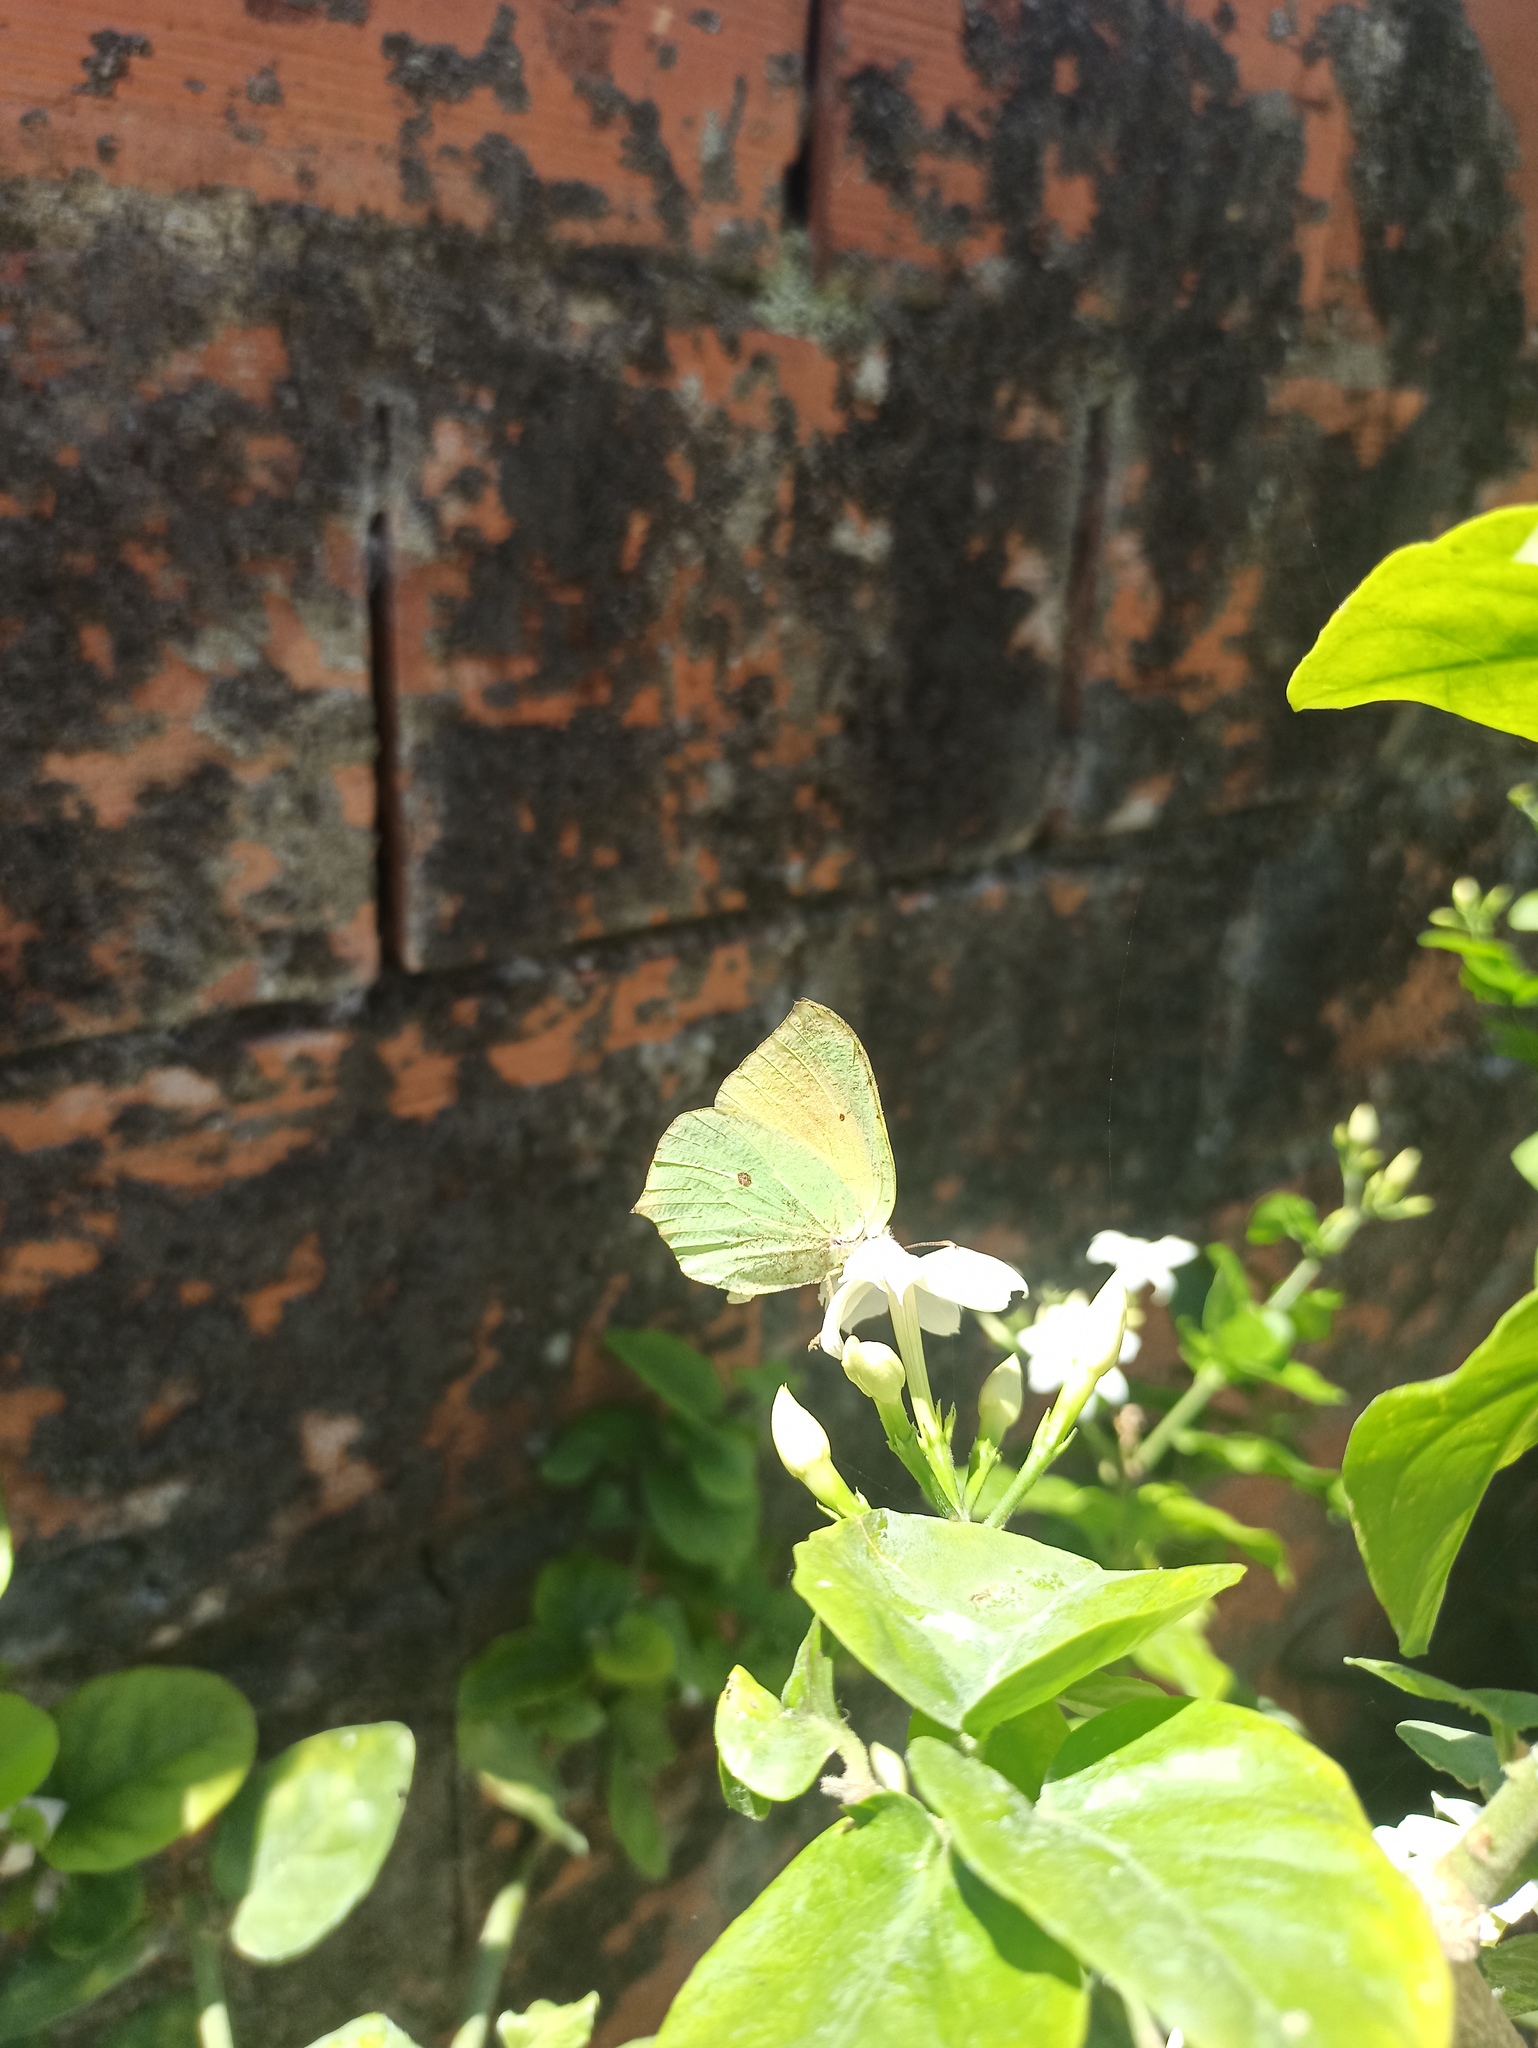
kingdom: Animalia
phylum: Arthropoda
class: Insecta
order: Lepidoptera
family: Pieridae
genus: Gonepteryx
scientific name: Gonepteryx cleopatra
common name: Cleopatra
